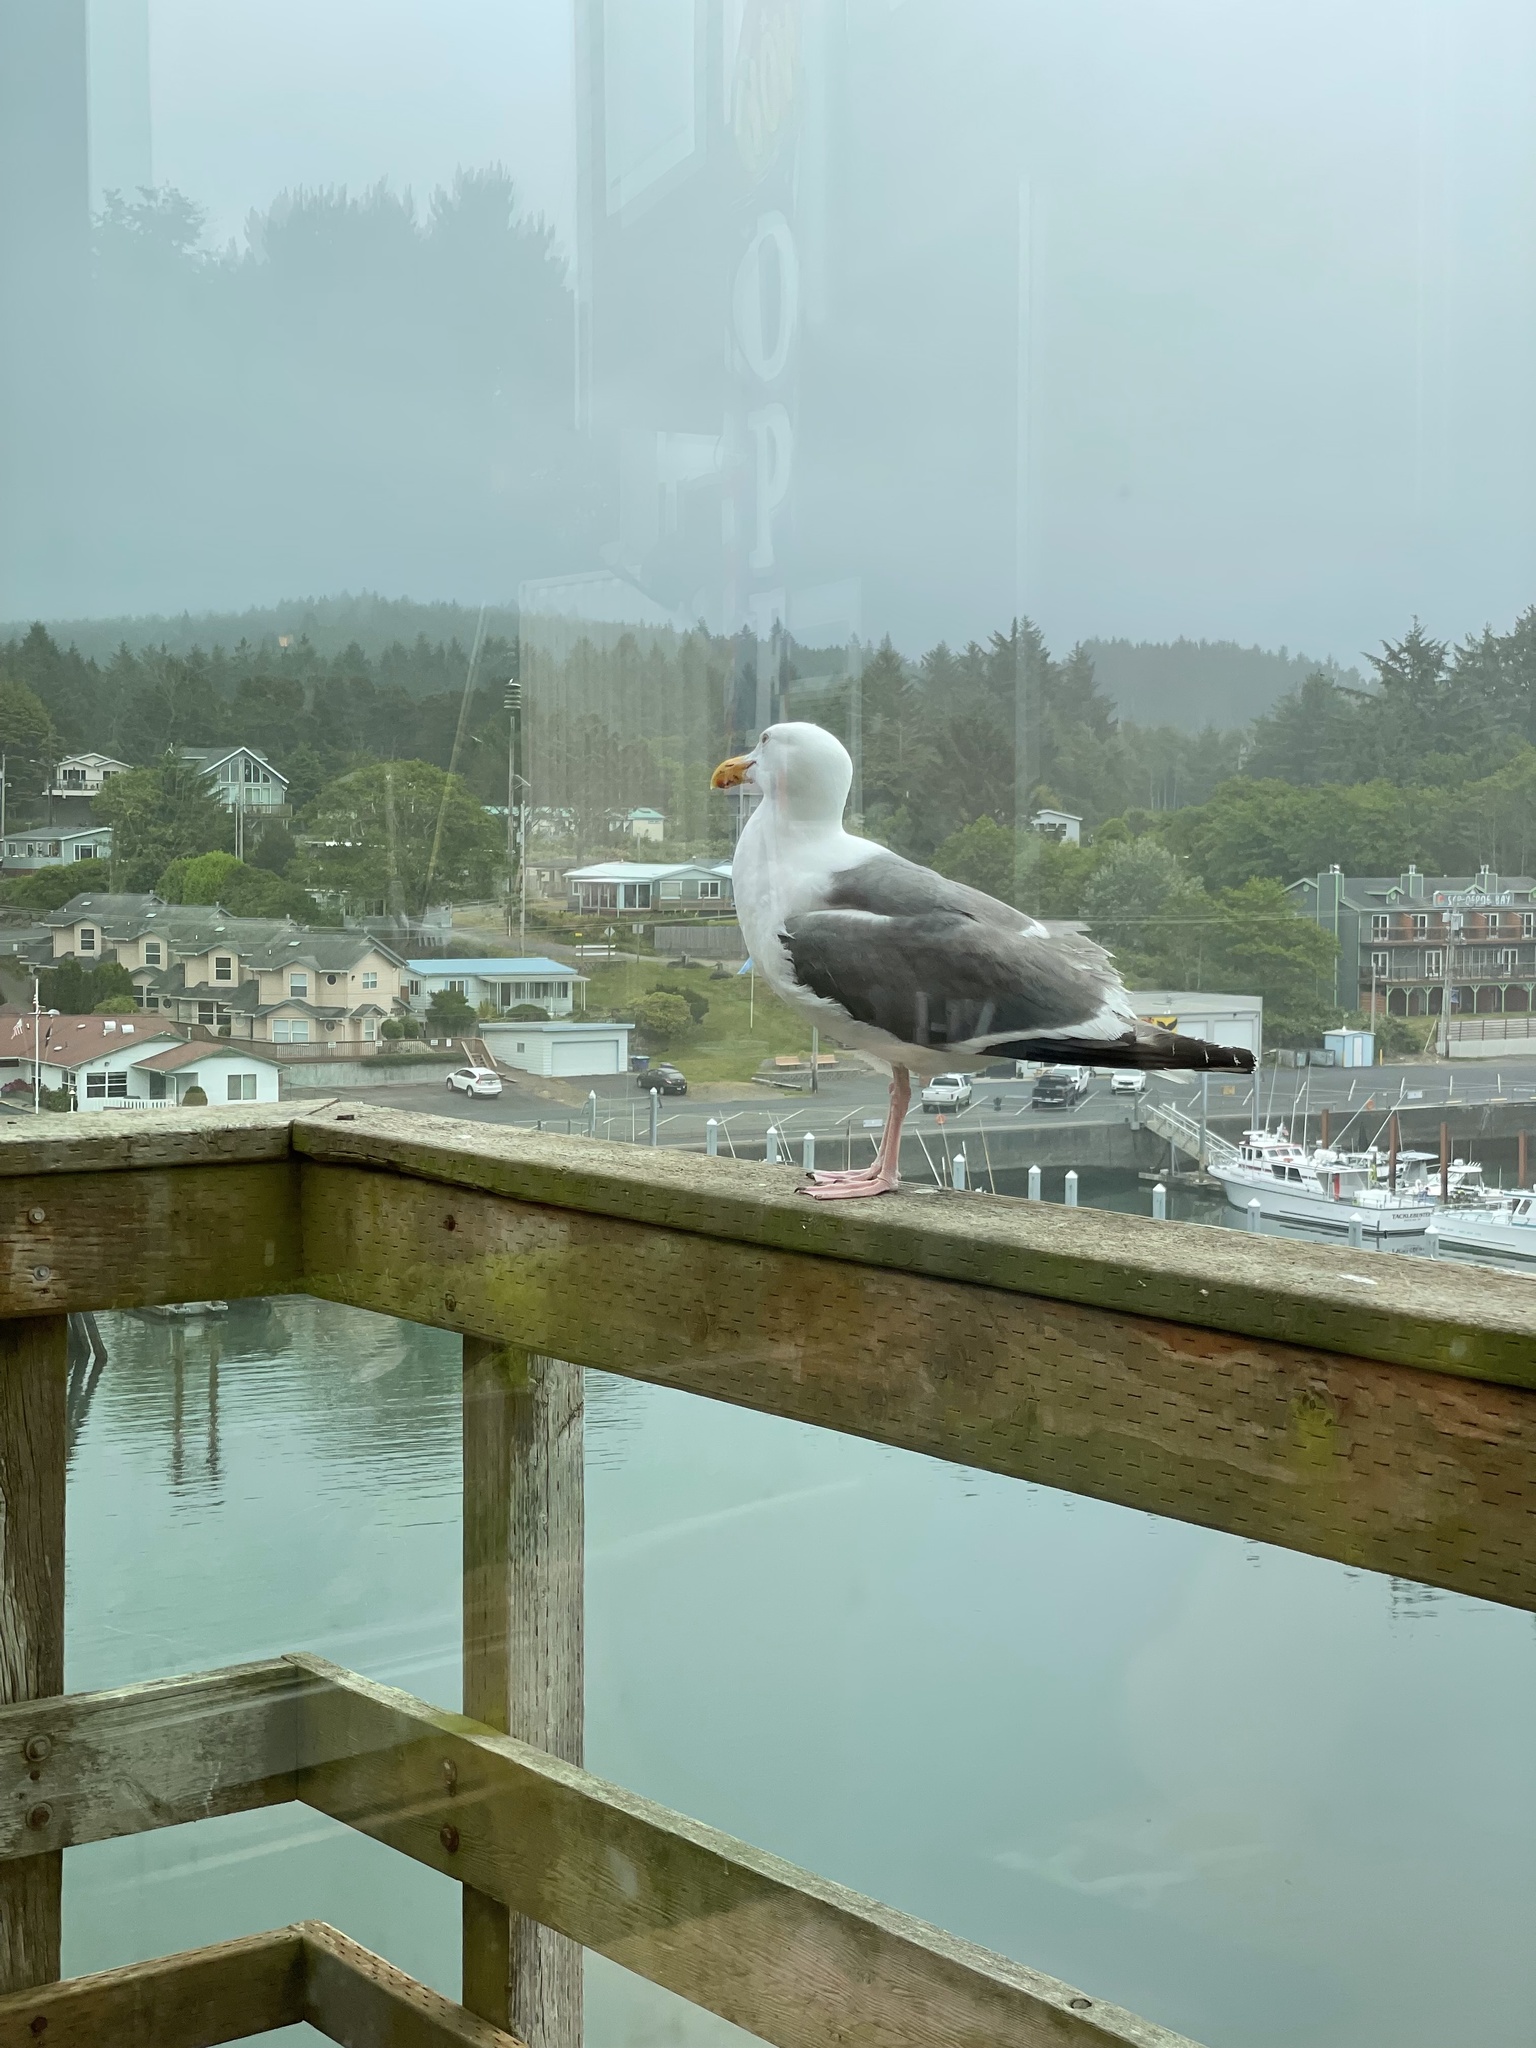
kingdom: Animalia
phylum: Chordata
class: Aves
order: Charadriiformes
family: Laridae
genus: Larus
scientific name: Larus occidentalis
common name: Western gull
